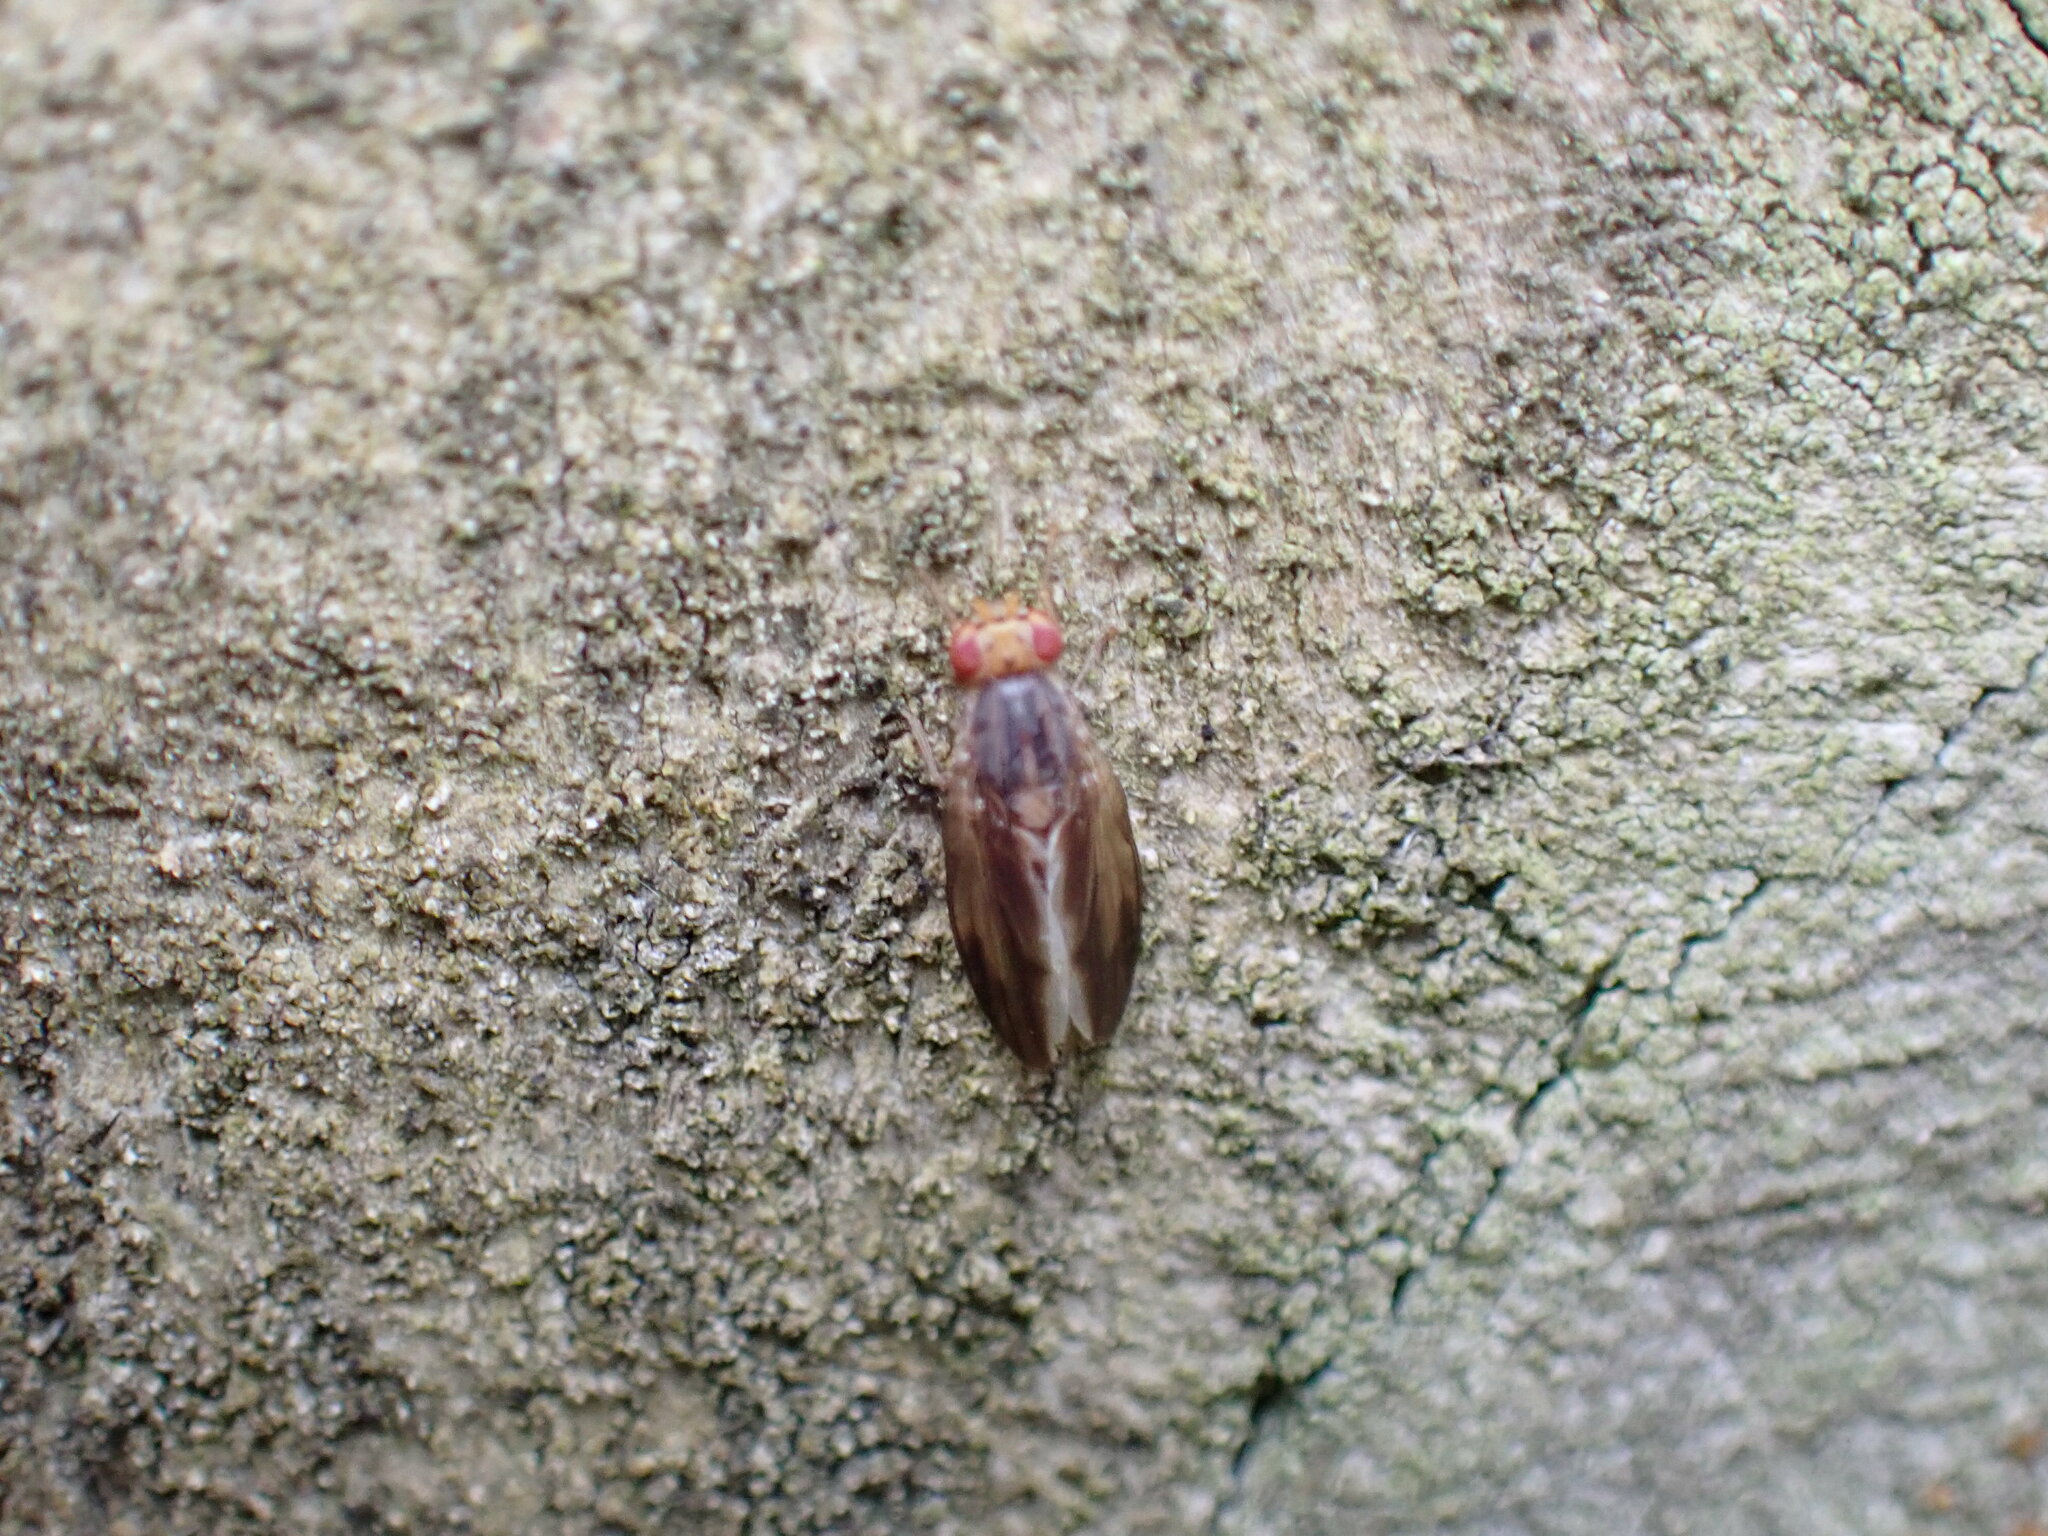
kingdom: Animalia
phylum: Arthropoda
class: Insecta
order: Diptera
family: Lauxaniidae
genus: Peplomyza
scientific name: Peplomyza litura
